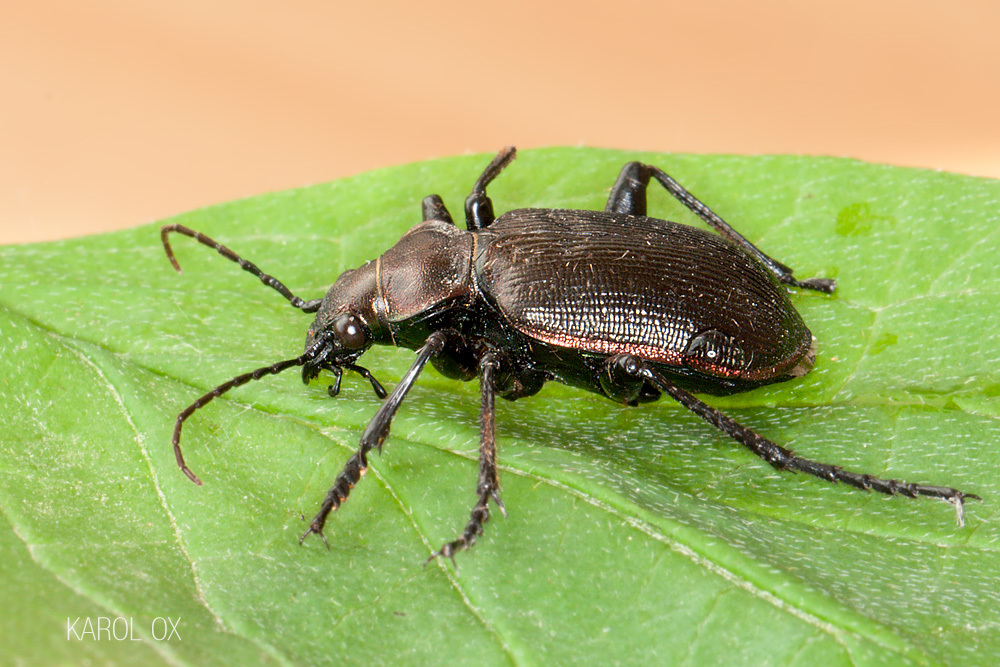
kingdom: Animalia
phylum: Arthropoda
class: Insecta
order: Coleoptera
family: Carabidae
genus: Calosoma
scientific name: Calosoma inquisitor
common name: Caterpillar-hunter
